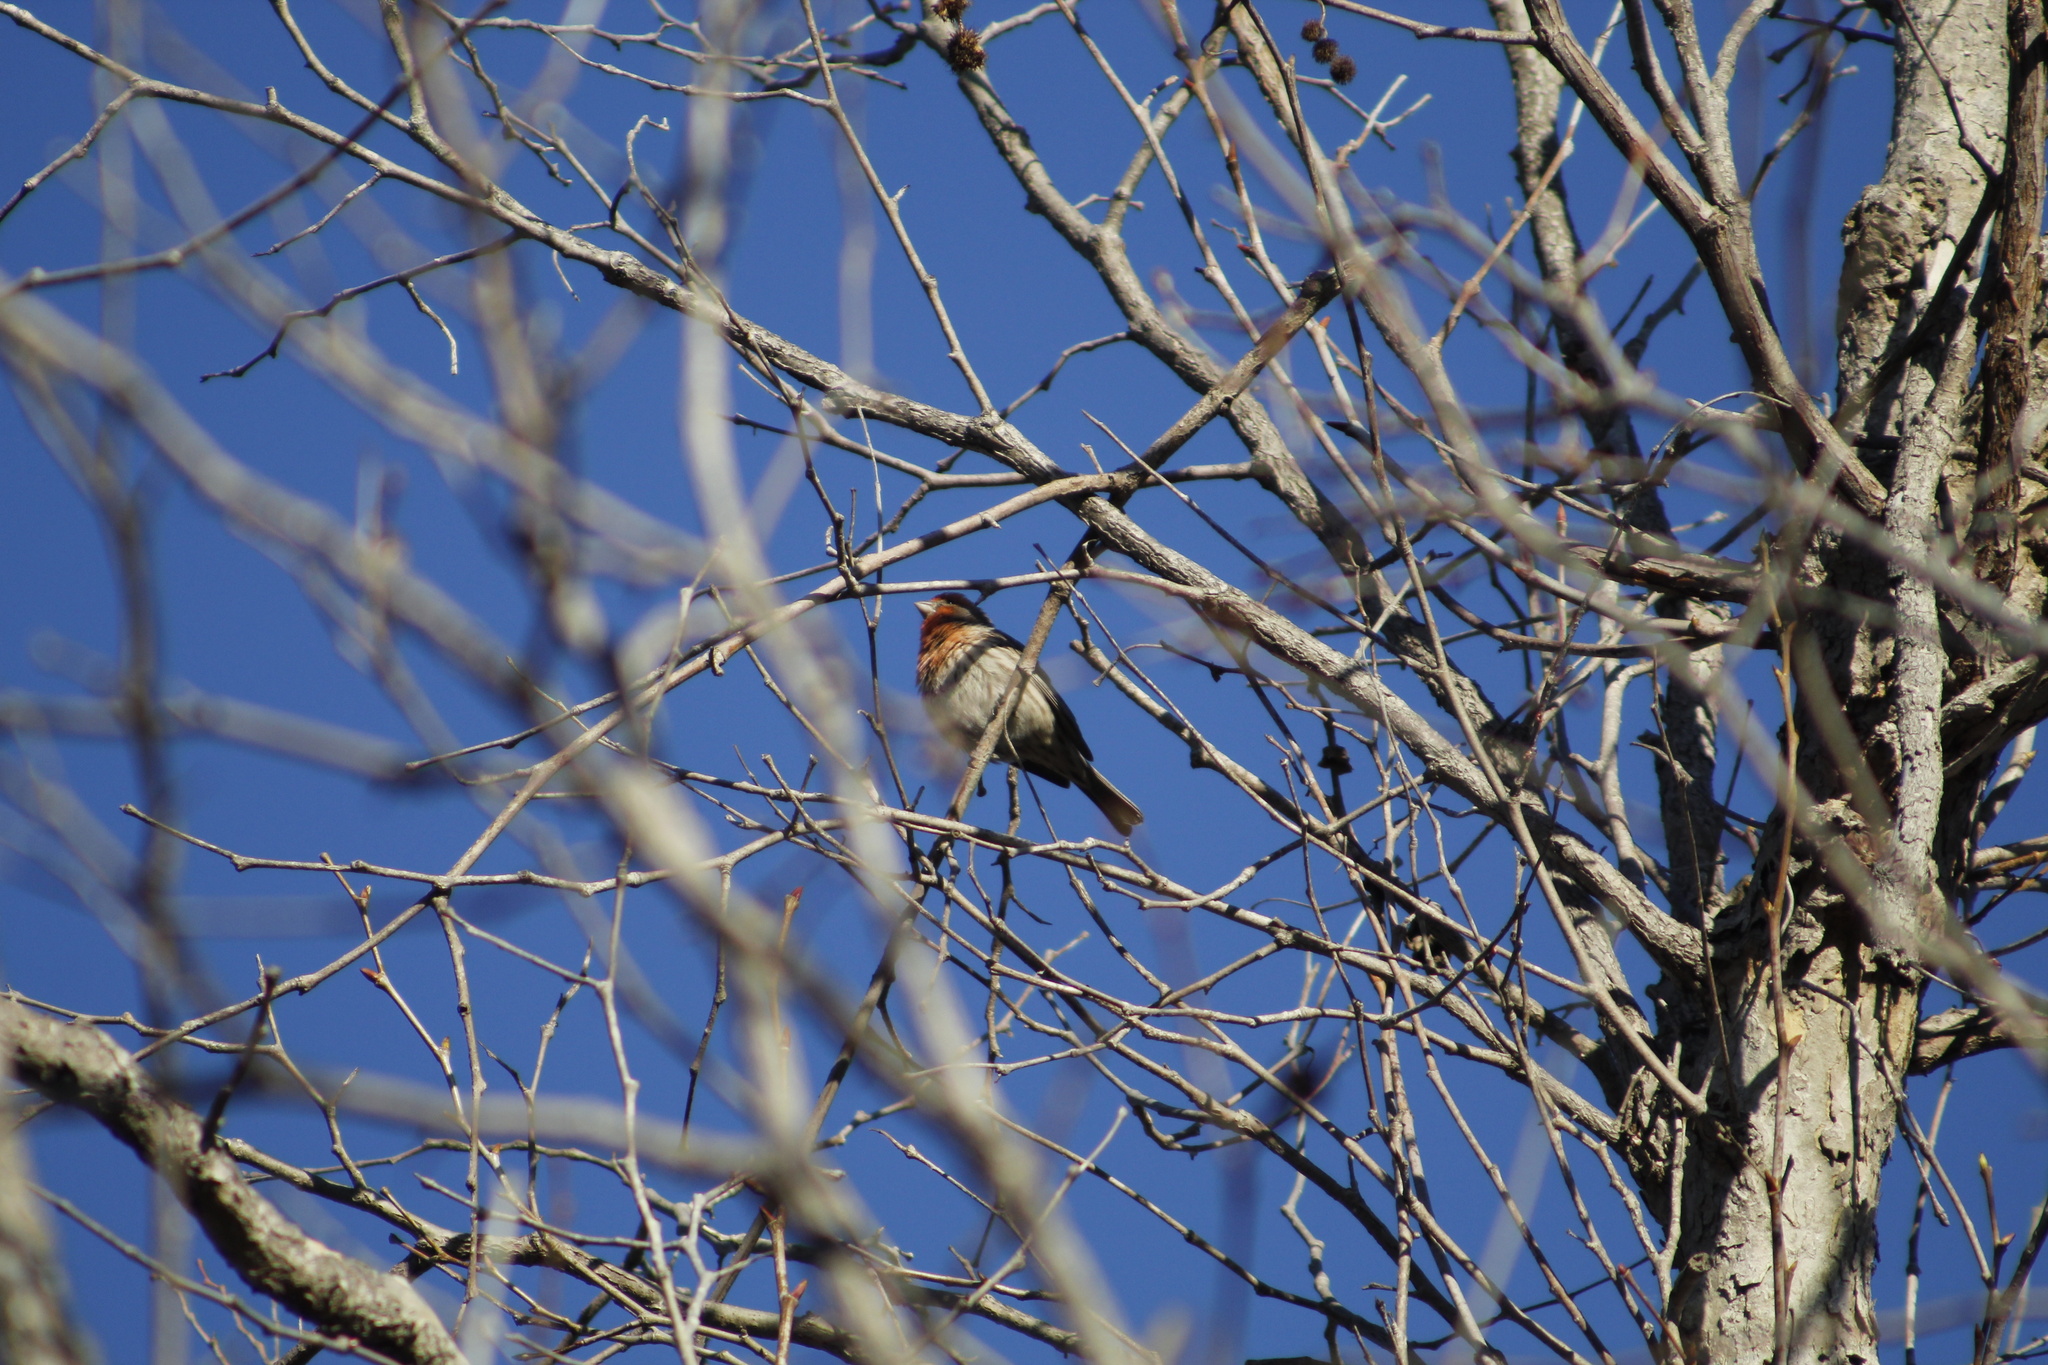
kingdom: Animalia
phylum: Chordata
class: Aves
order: Passeriformes
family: Fringillidae
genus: Haemorhous
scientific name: Haemorhous mexicanus
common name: House finch
